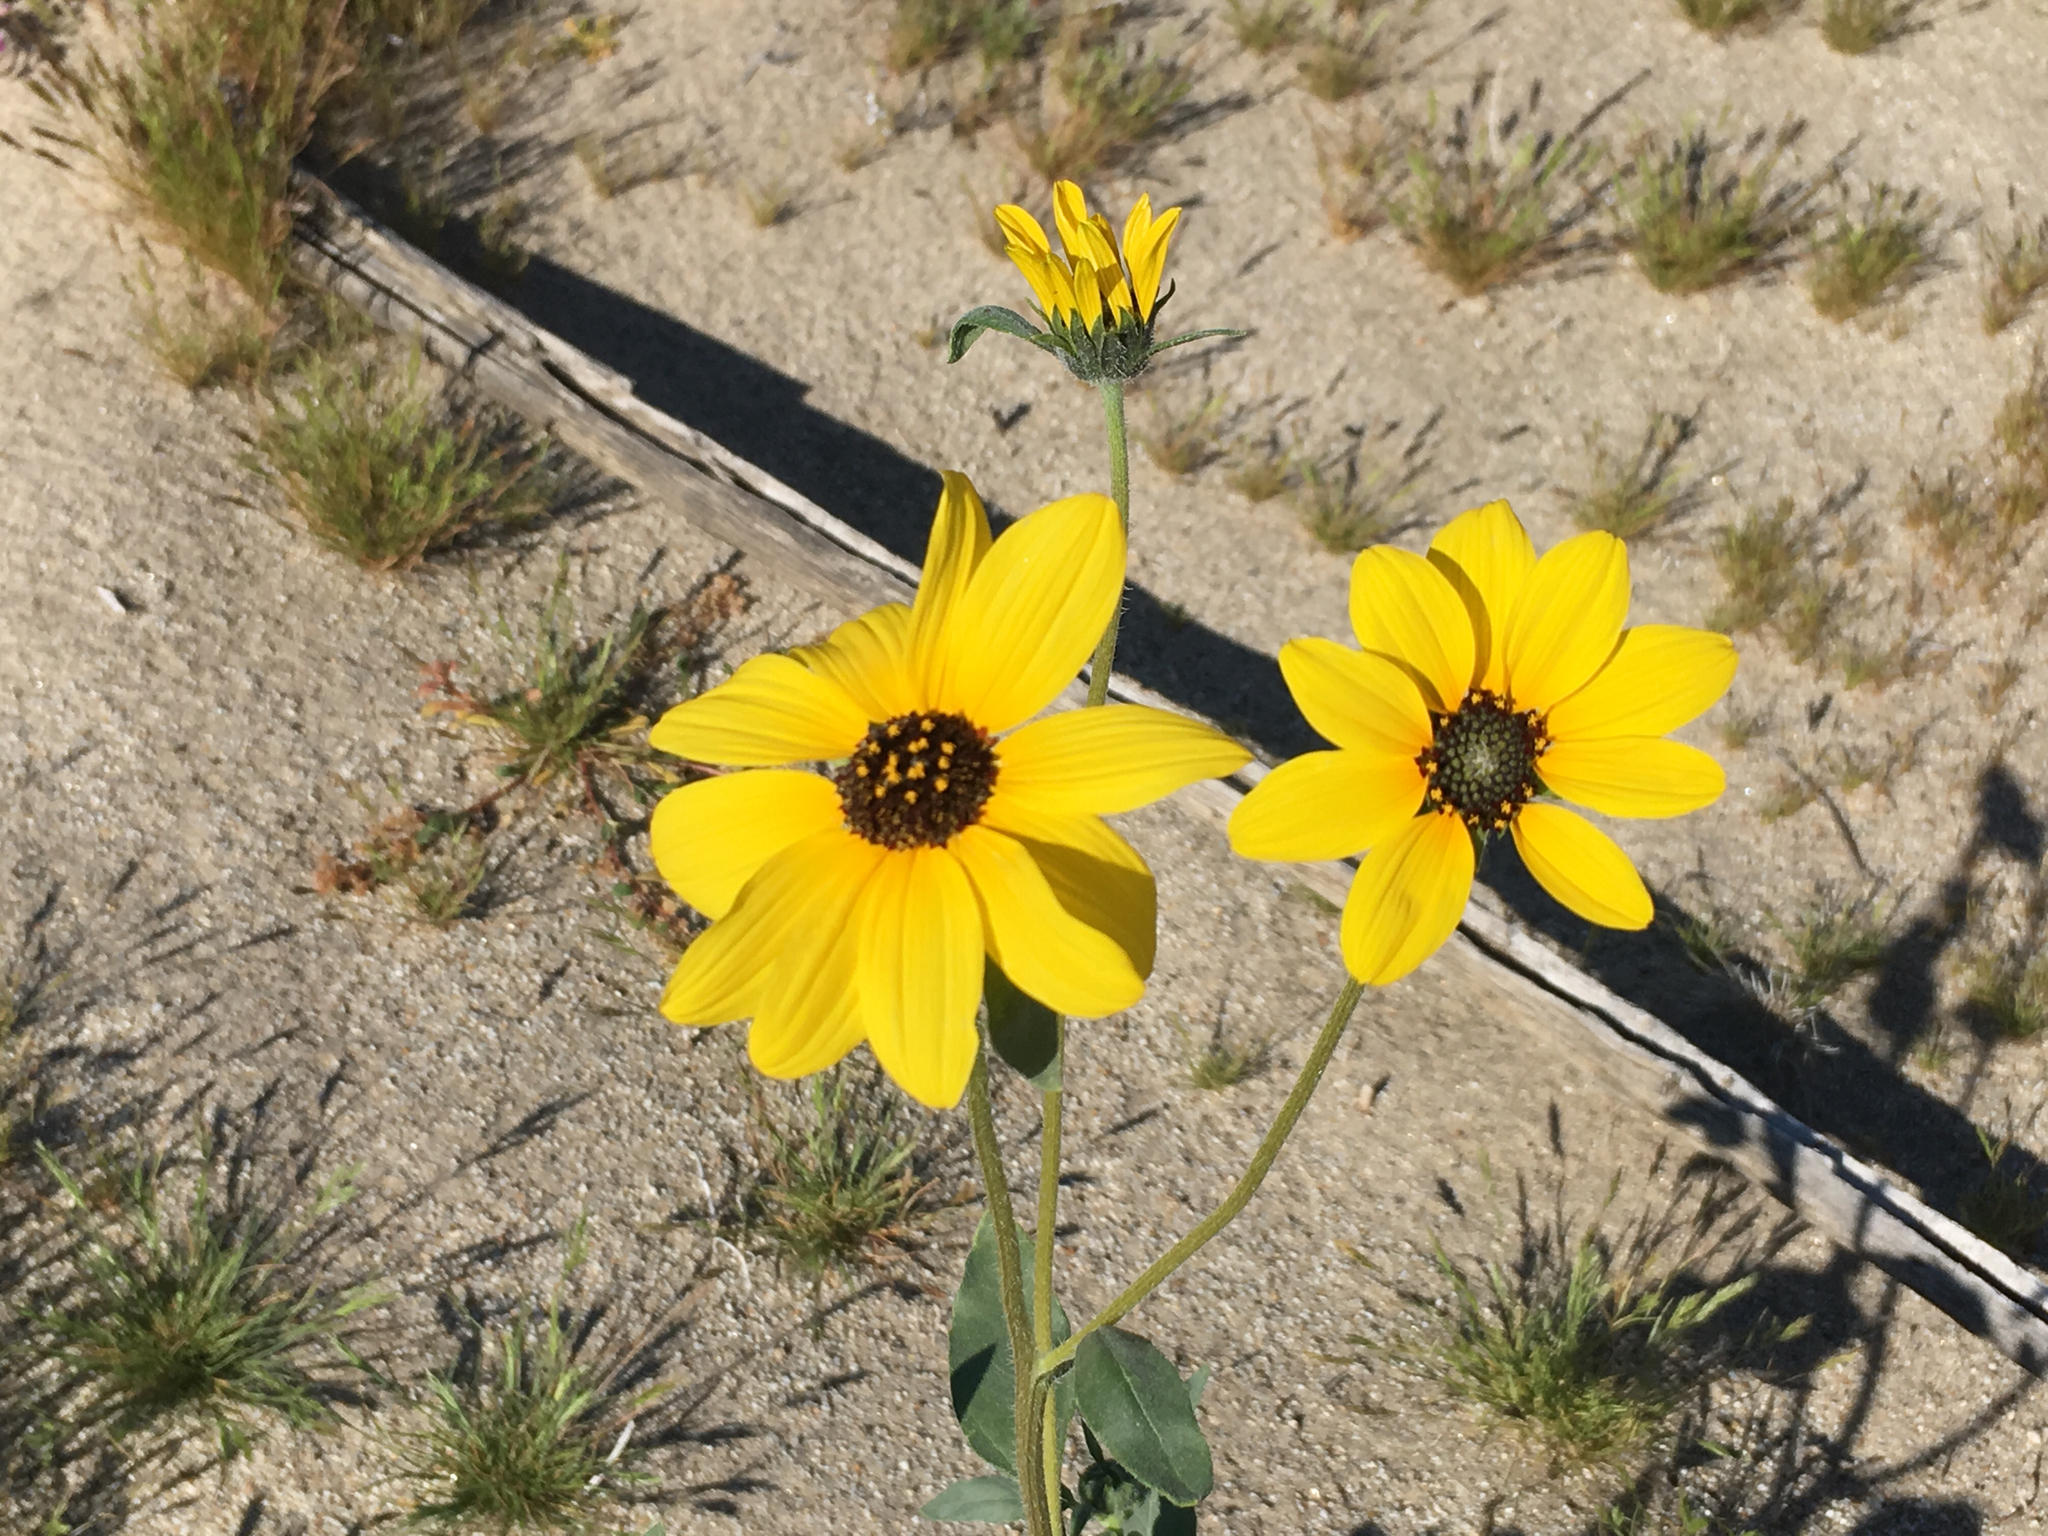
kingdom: Plantae
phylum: Tracheophyta
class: Magnoliopsida
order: Asterales
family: Asteraceae
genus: Helianthus
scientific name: Helianthus petiolaris
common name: Lesser sunflower
